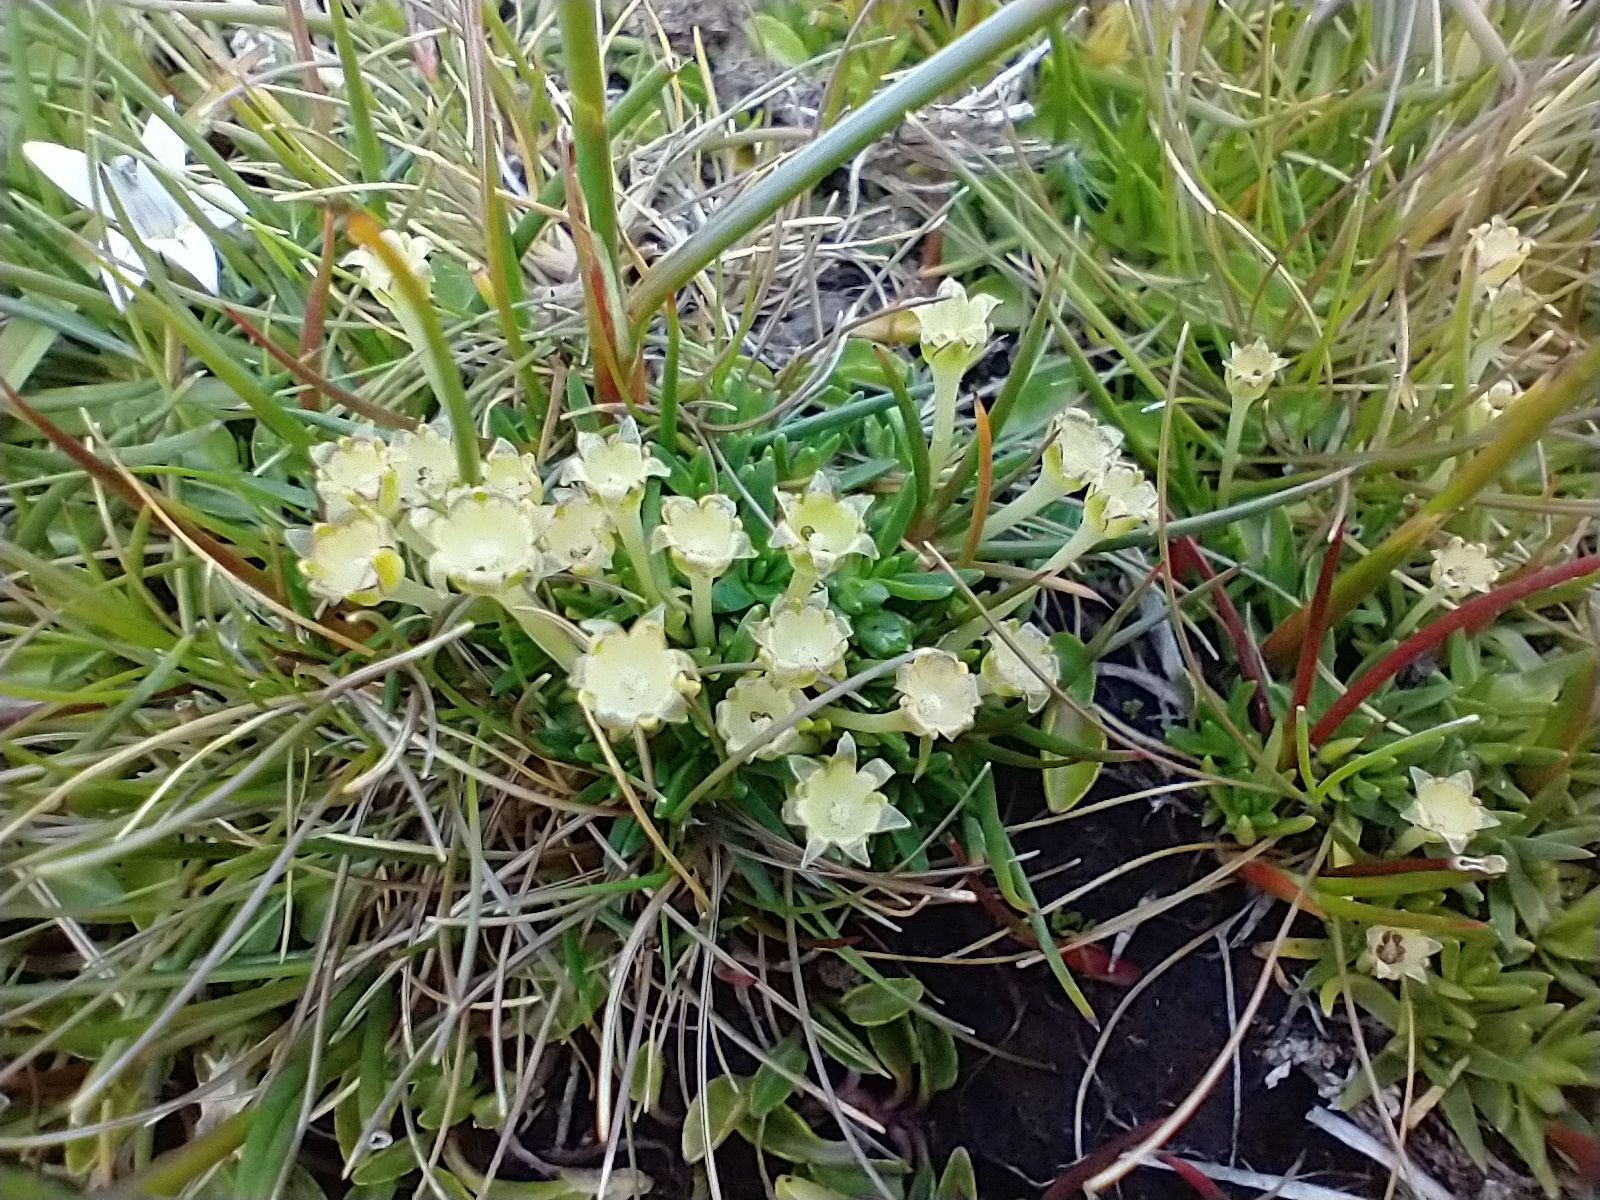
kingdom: Plantae
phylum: Tracheophyta
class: Magnoliopsida
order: Caryophyllales
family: Caryophyllaceae
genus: Colobanthus
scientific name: Colobanthus quitensis
